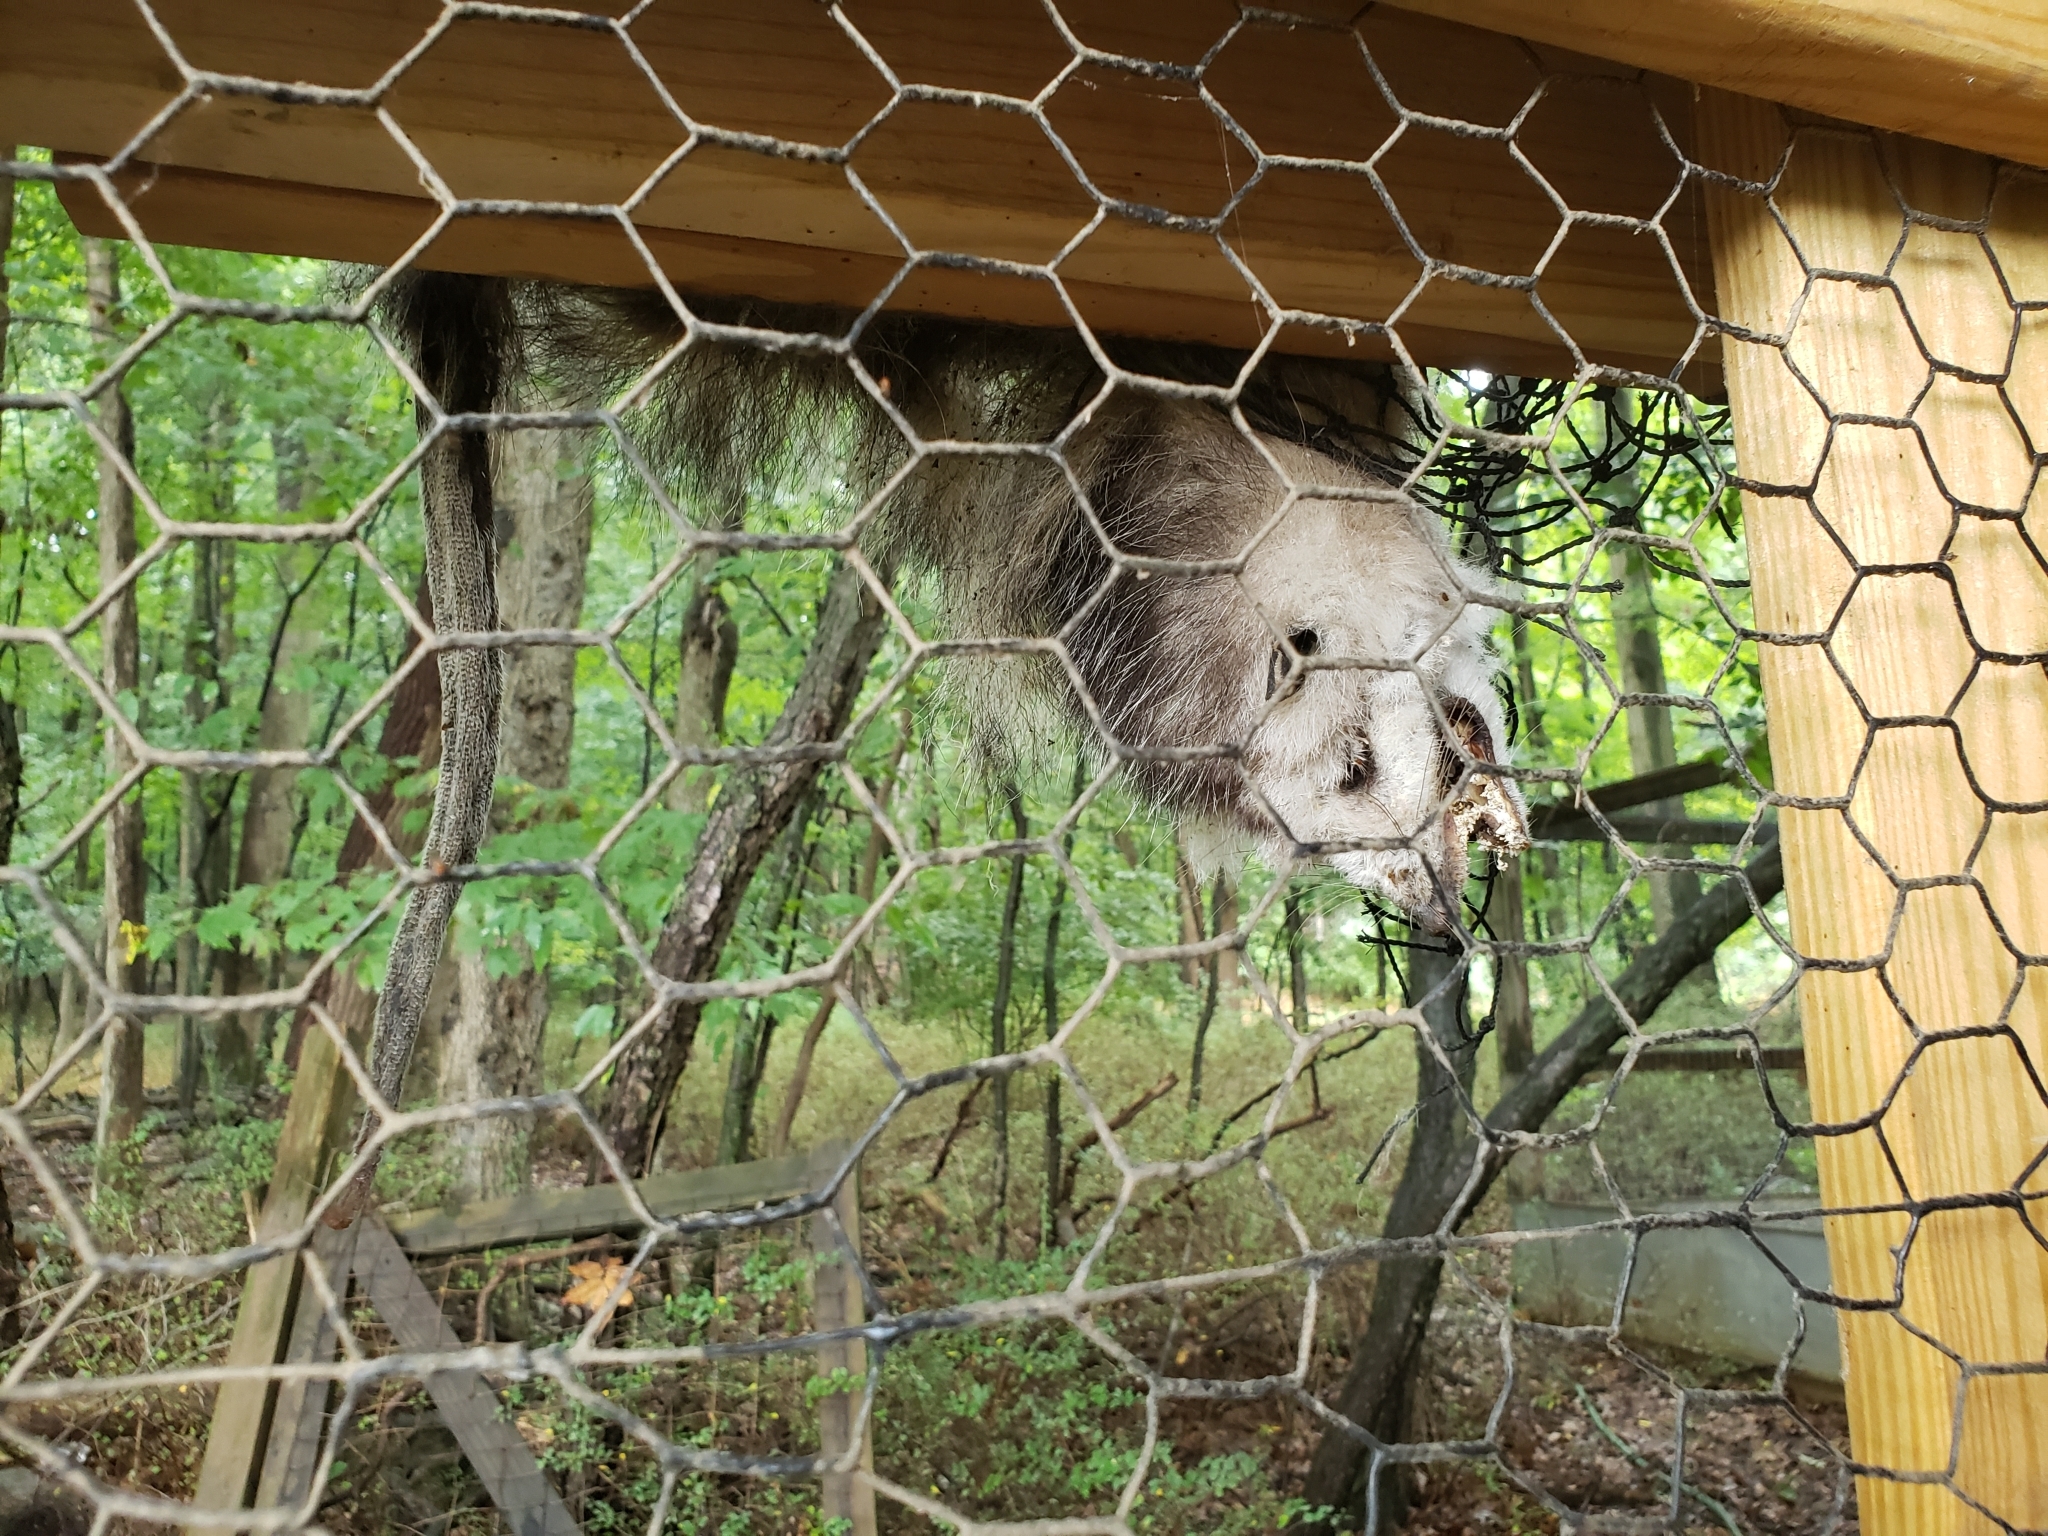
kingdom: Animalia
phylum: Chordata
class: Mammalia
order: Didelphimorphia
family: Didelphidae
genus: Didelphis
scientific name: Didelphis virginiana
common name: Virginia opossum
